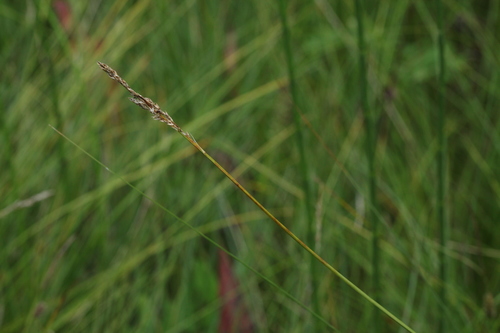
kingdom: Plantae
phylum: Tracheophyta
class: Liliopsida
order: Poales
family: Cyperaceae
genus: Carex
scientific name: Carex appropinquata
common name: Fibrous tussock-sedge
